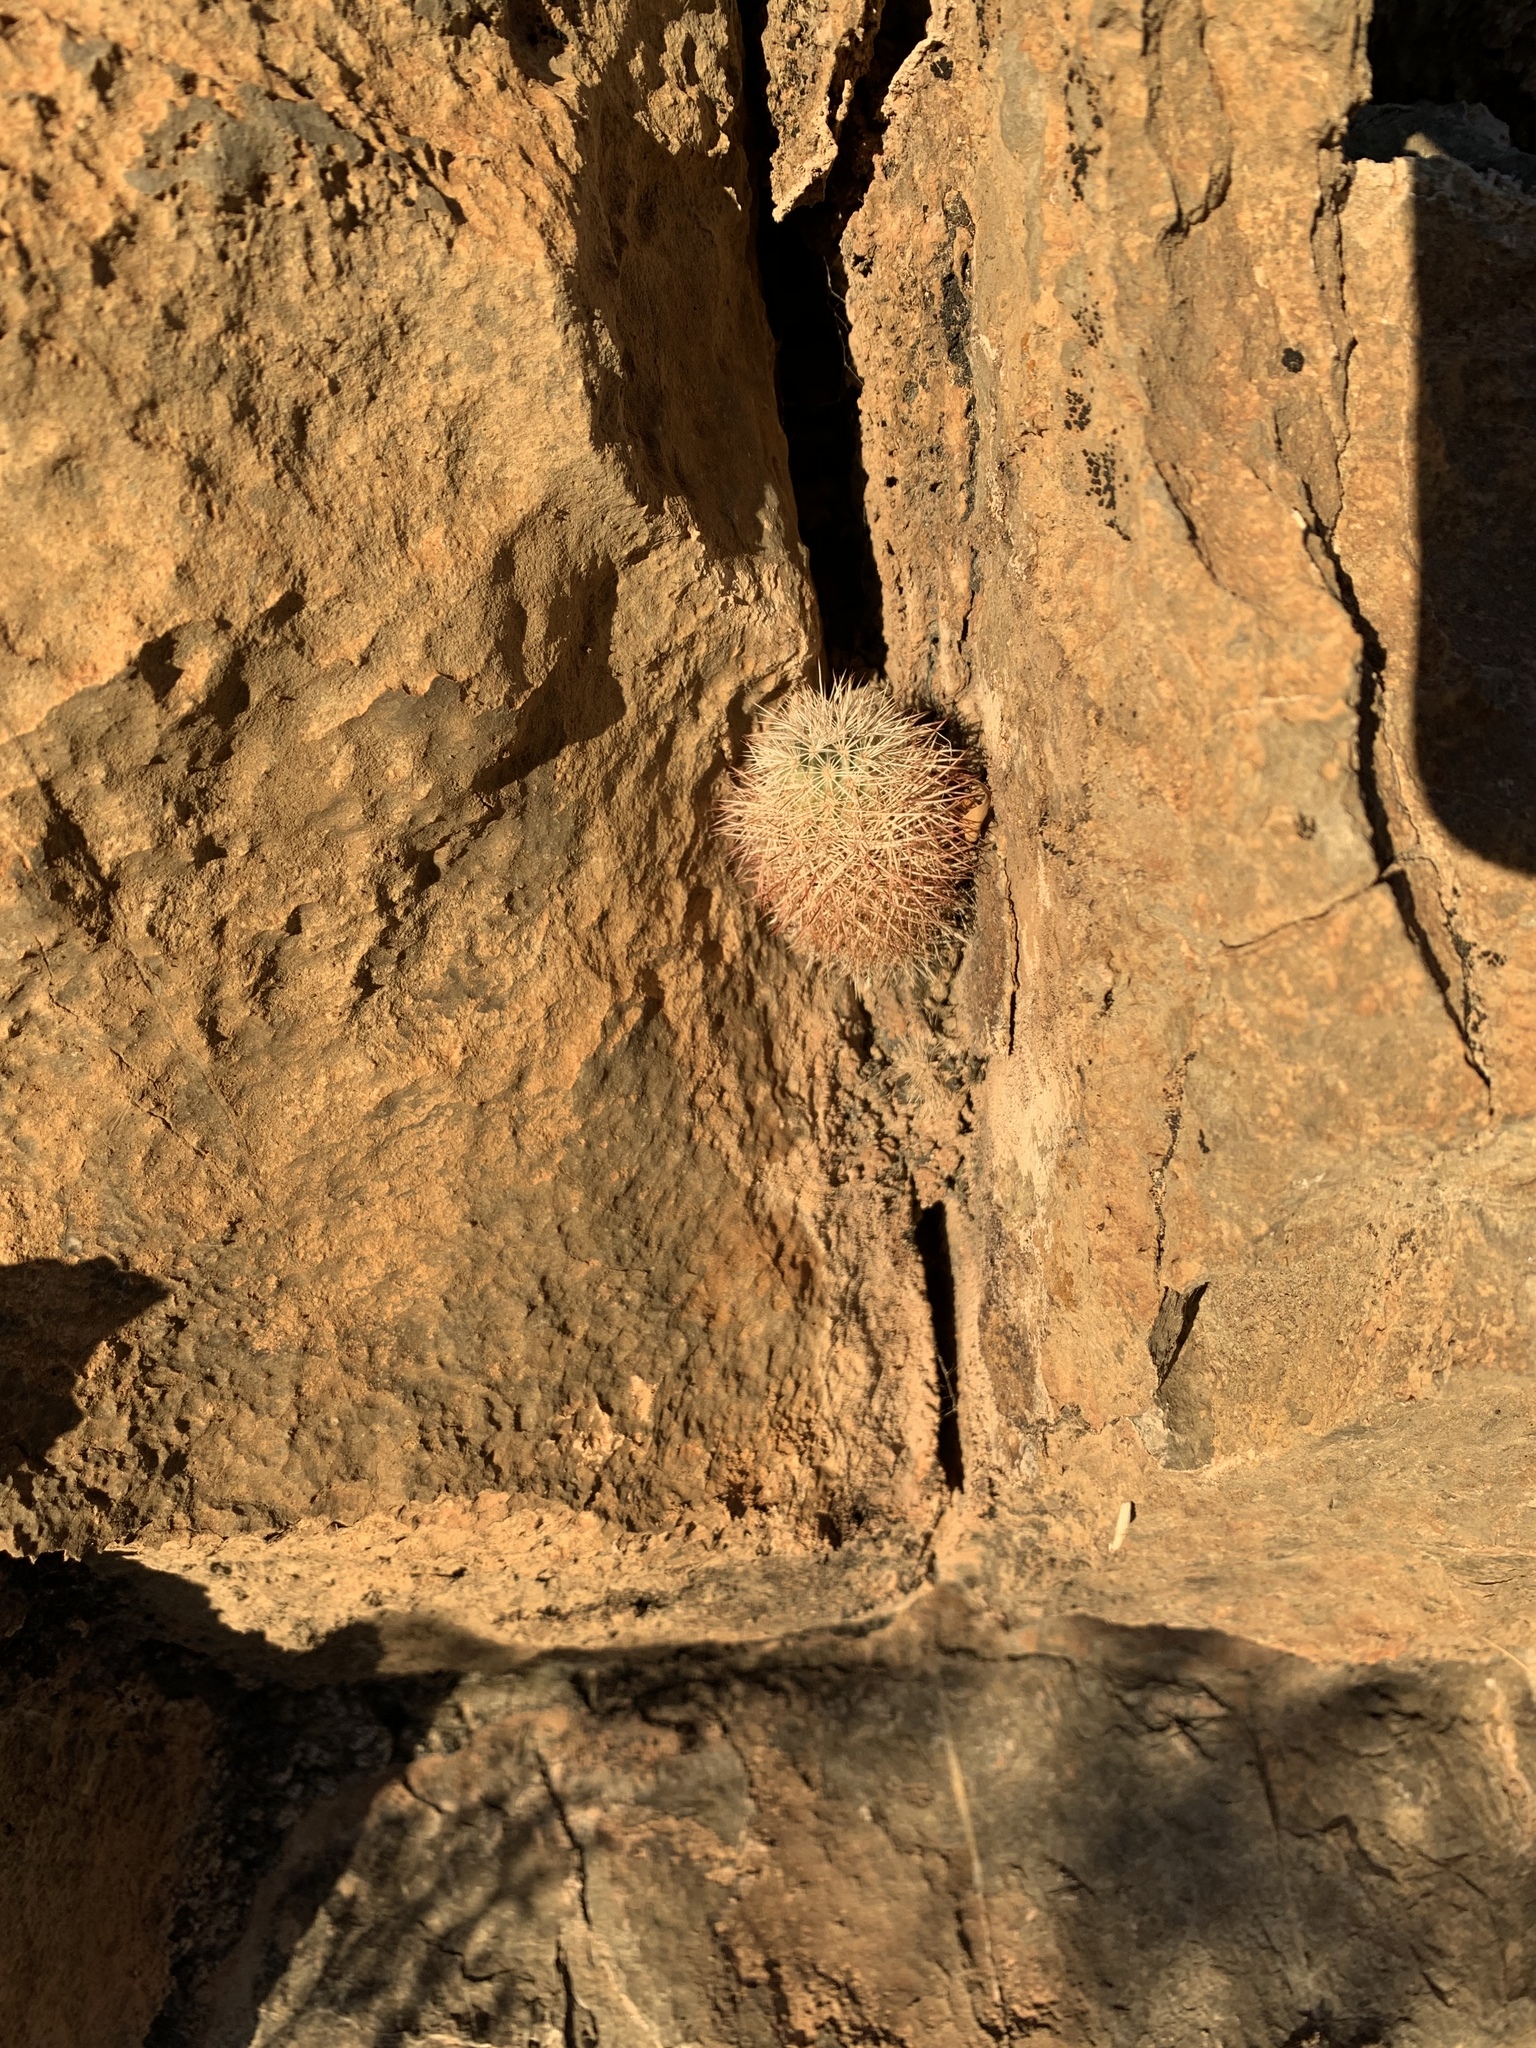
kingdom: Plantae
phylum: Tracheophyta
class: Magnoliopsida
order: Caryophyllales
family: Cactaceae
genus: Echinocereus
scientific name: Echinocereus dasyacanthus
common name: Spiny hedgehog cactus
